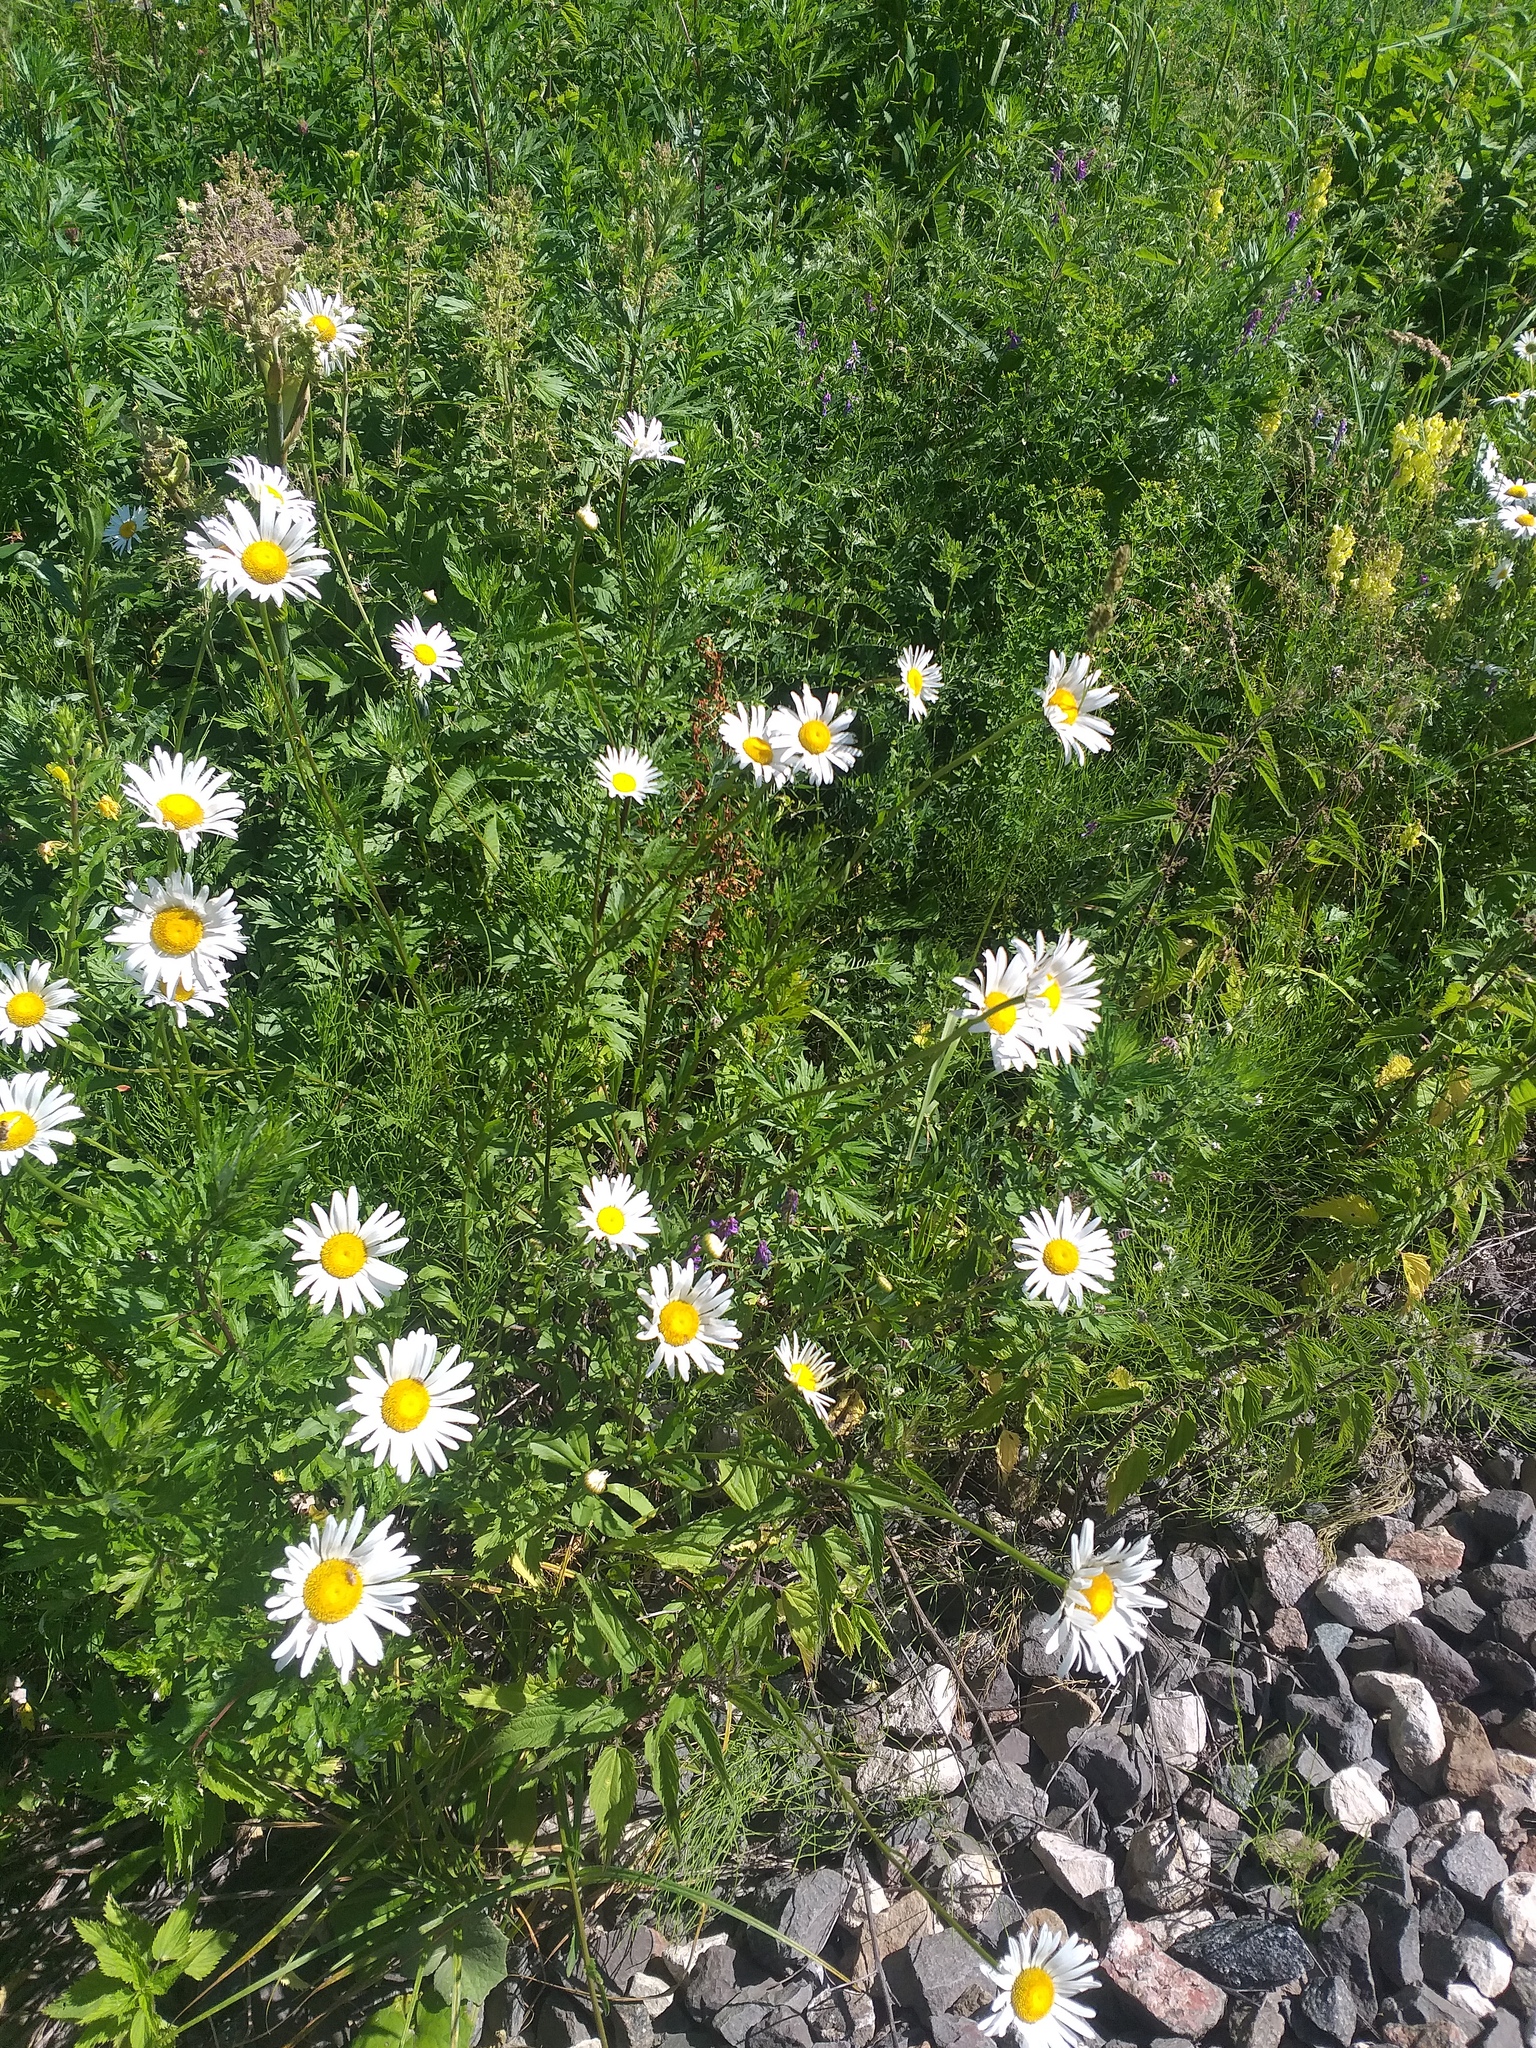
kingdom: Plantae
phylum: Tracheophyta
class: Magnoliopsida
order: Asterales
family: Asteraceae
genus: Leucanthemum
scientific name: Leucanthemum vulgare
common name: Oxeye daisy
